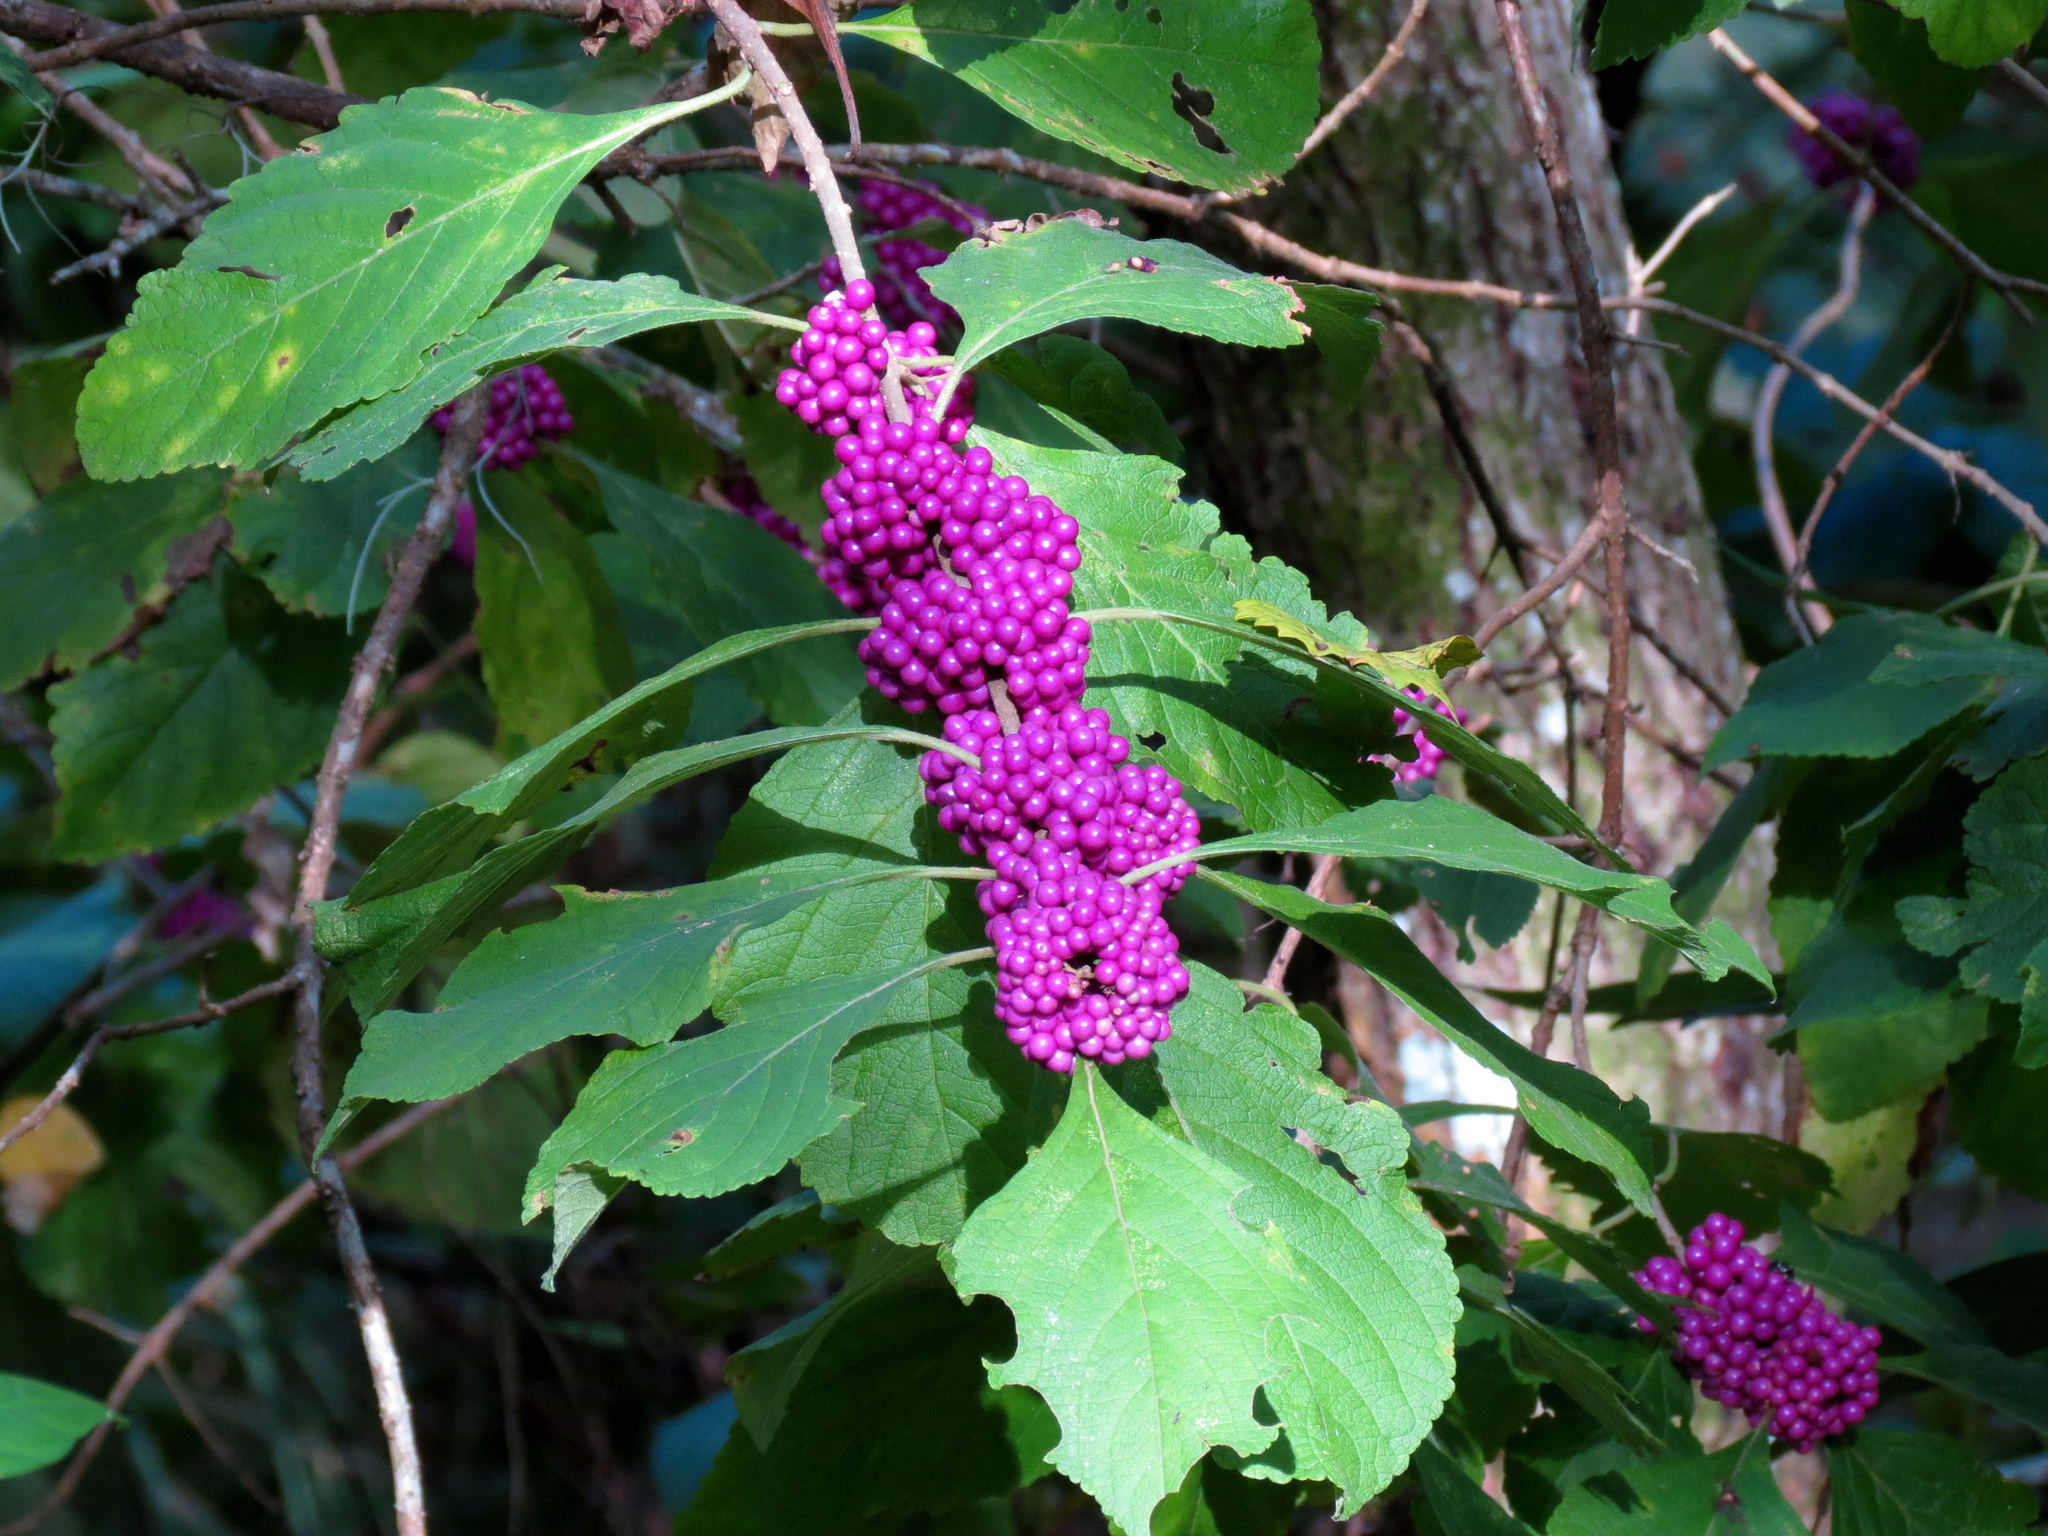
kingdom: Plantae
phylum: Tracheophyta
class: Magnoliopsida
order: Lamiales
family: Lamiaceae
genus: Callicarpa
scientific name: Callicarpa americana
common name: American beautyberry
